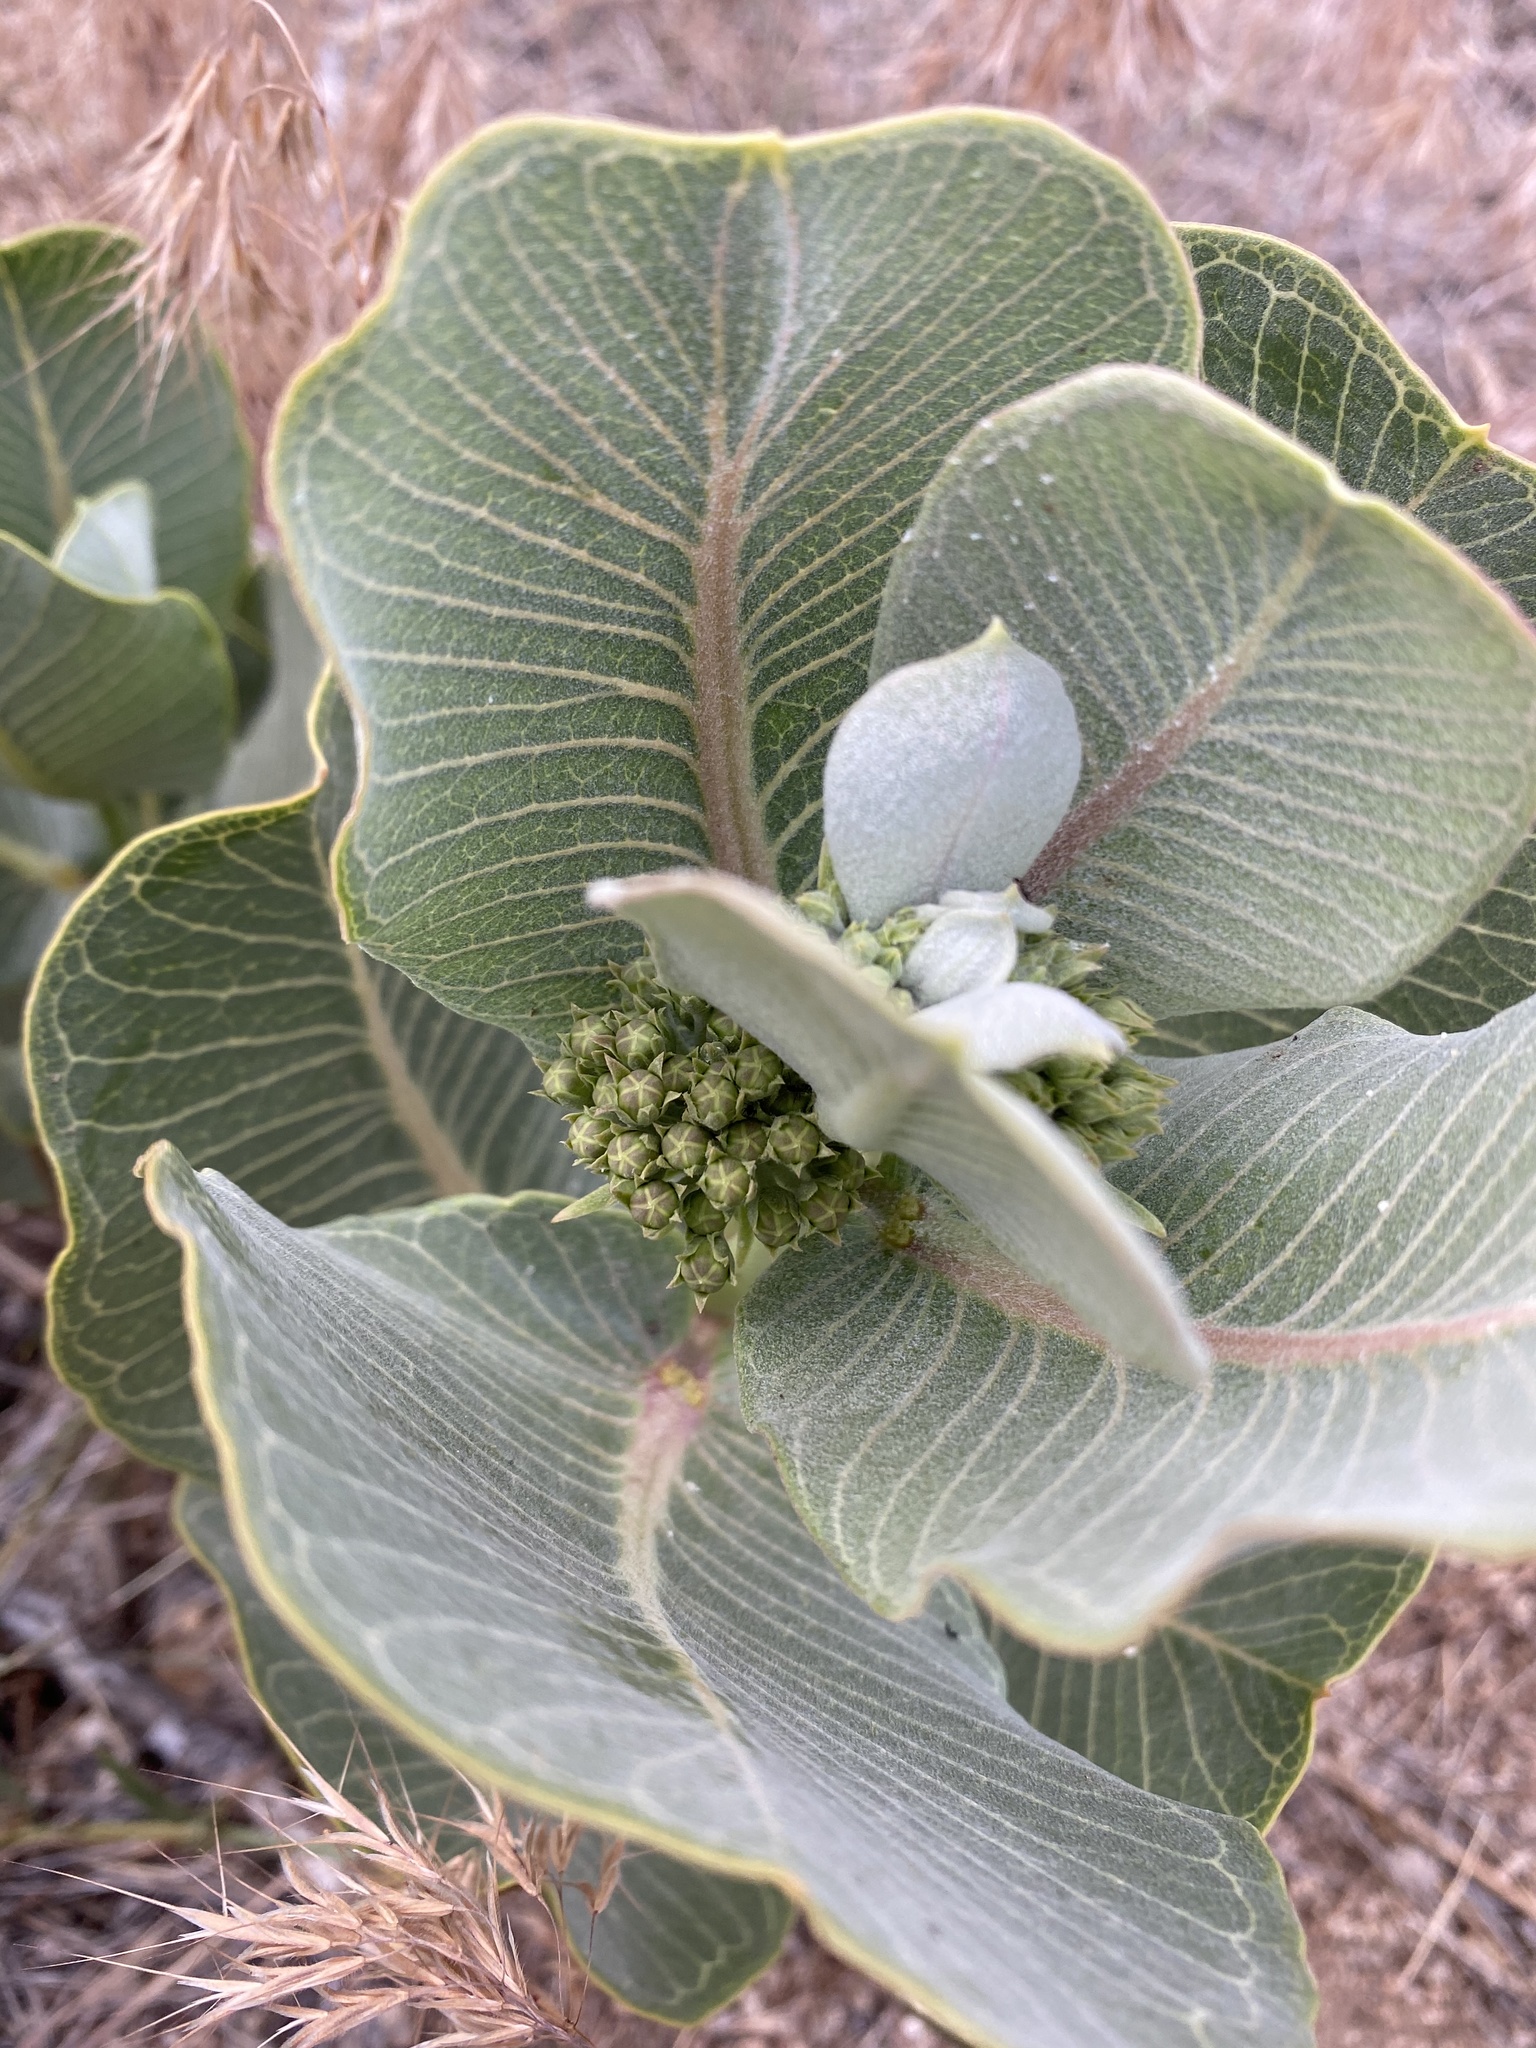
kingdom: Plantae
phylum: Tracheophyta
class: Magnoliopsida
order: Gentianales
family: Apocynaceae
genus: Asclepias
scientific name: Asclepias latifolia
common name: Broadleaf milkweed
